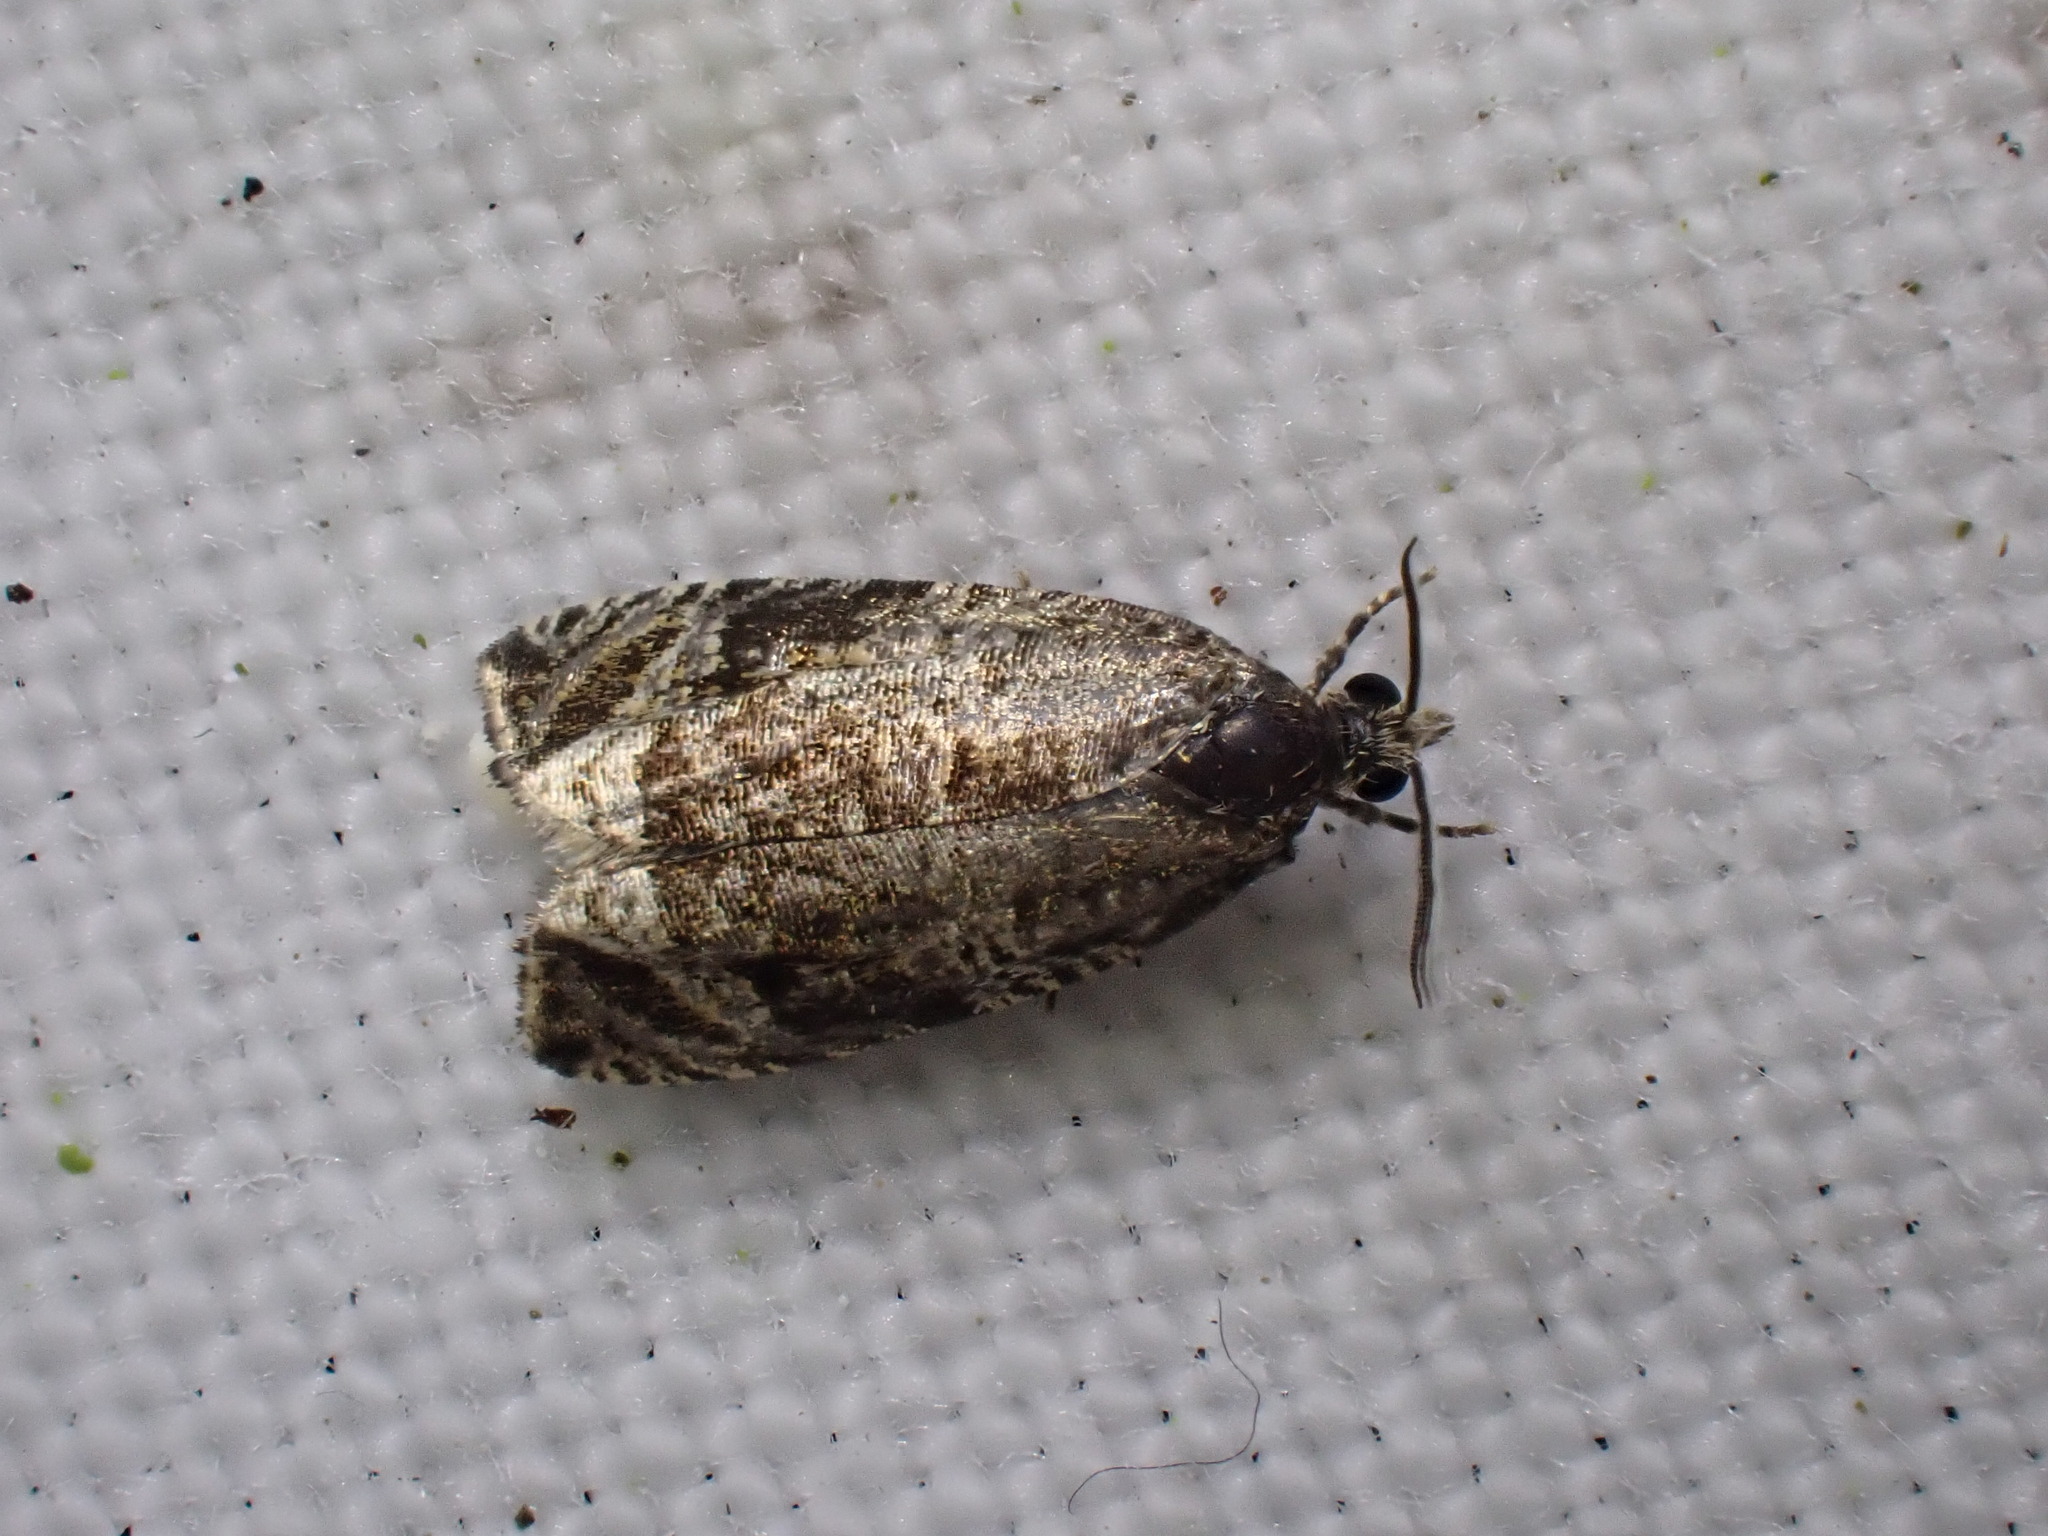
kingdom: Animalia
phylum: Arthropoda
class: Insecta
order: Lepidoptera
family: Tortricidae
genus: Syricoris
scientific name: Syricoris lacunana
